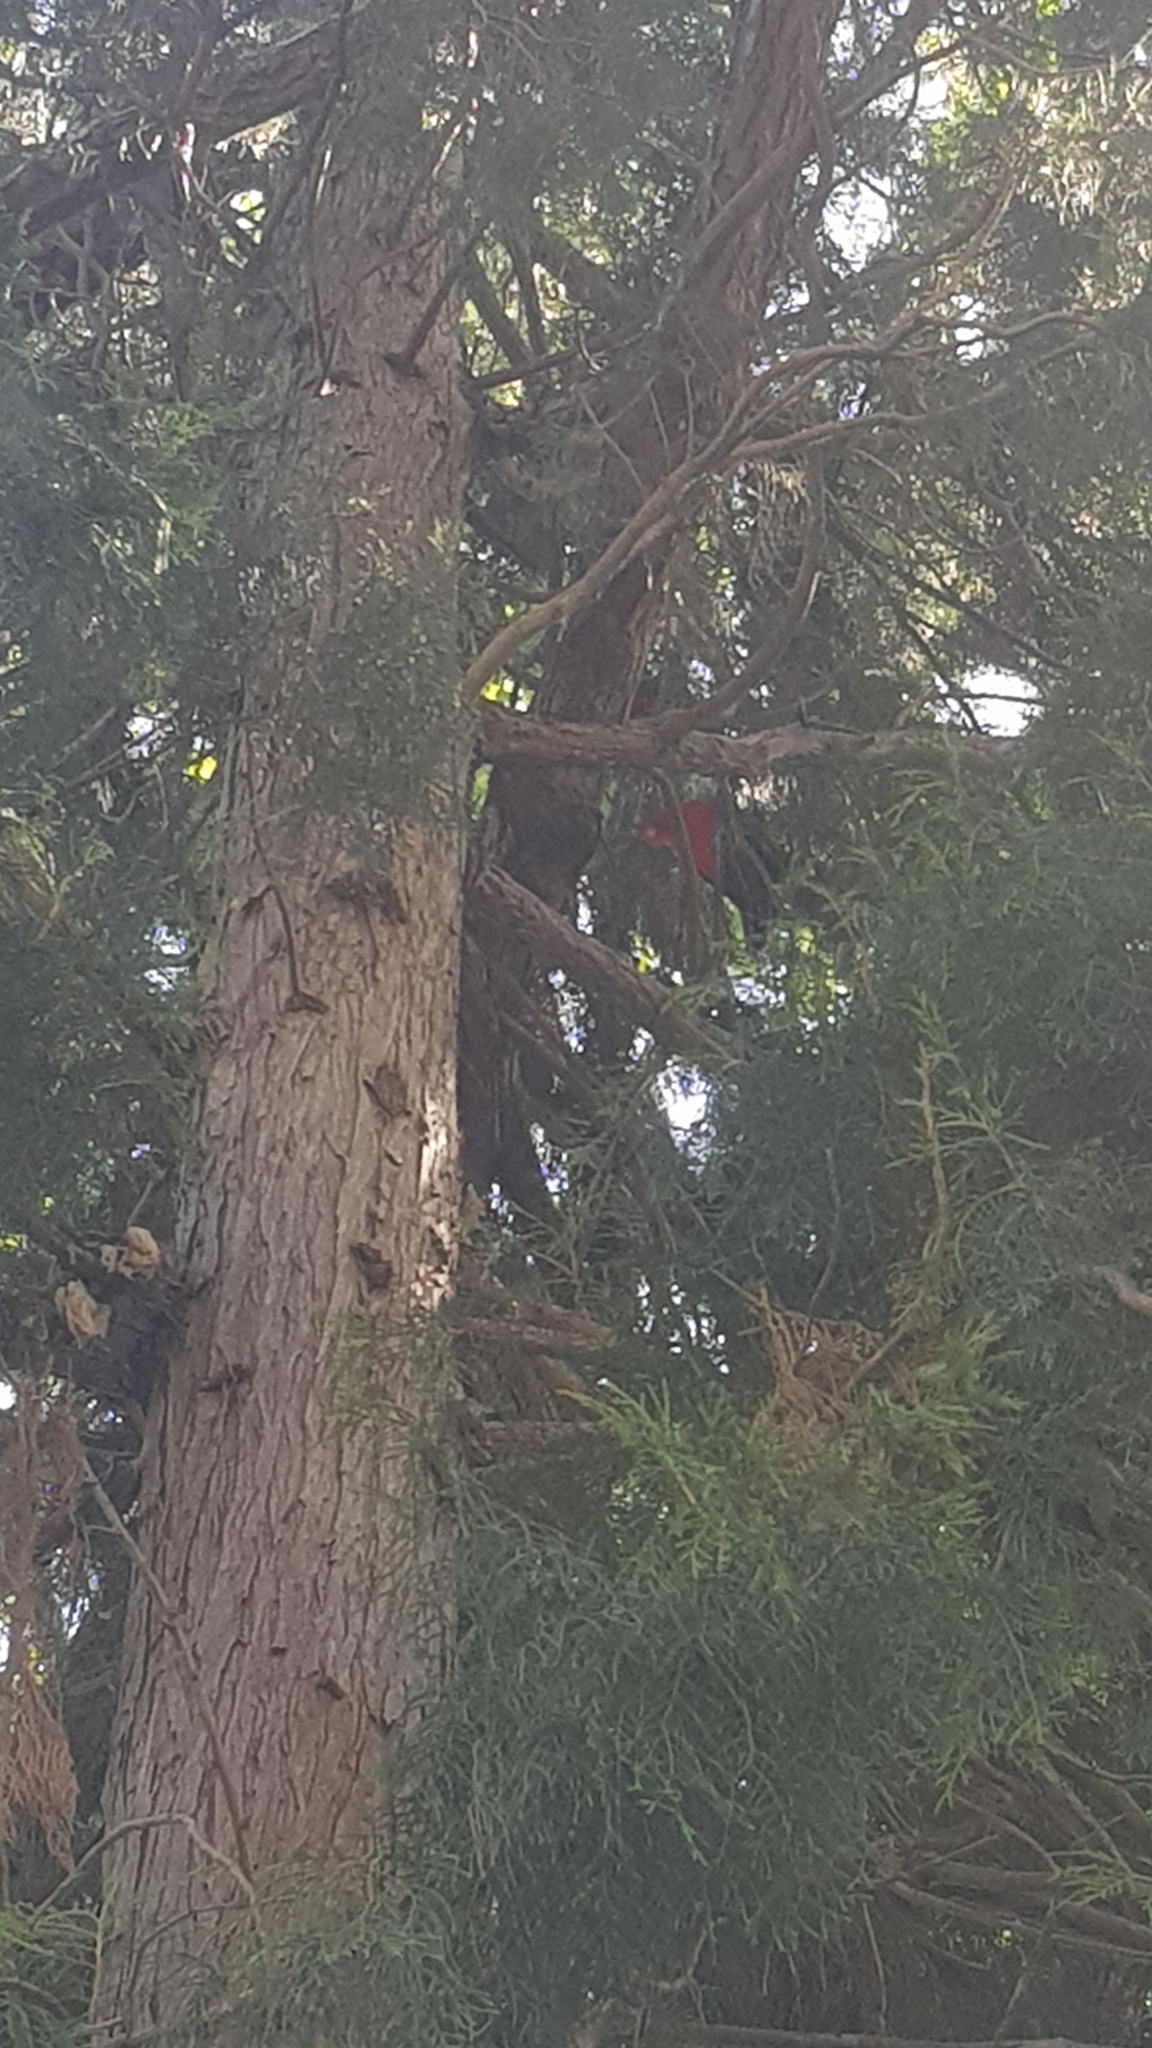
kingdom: Animalia
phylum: Chordata
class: Aves
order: Psittaciformes
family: Psittacidae
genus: Alisterus
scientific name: Alisterus scapularis
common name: Australian king parrot
